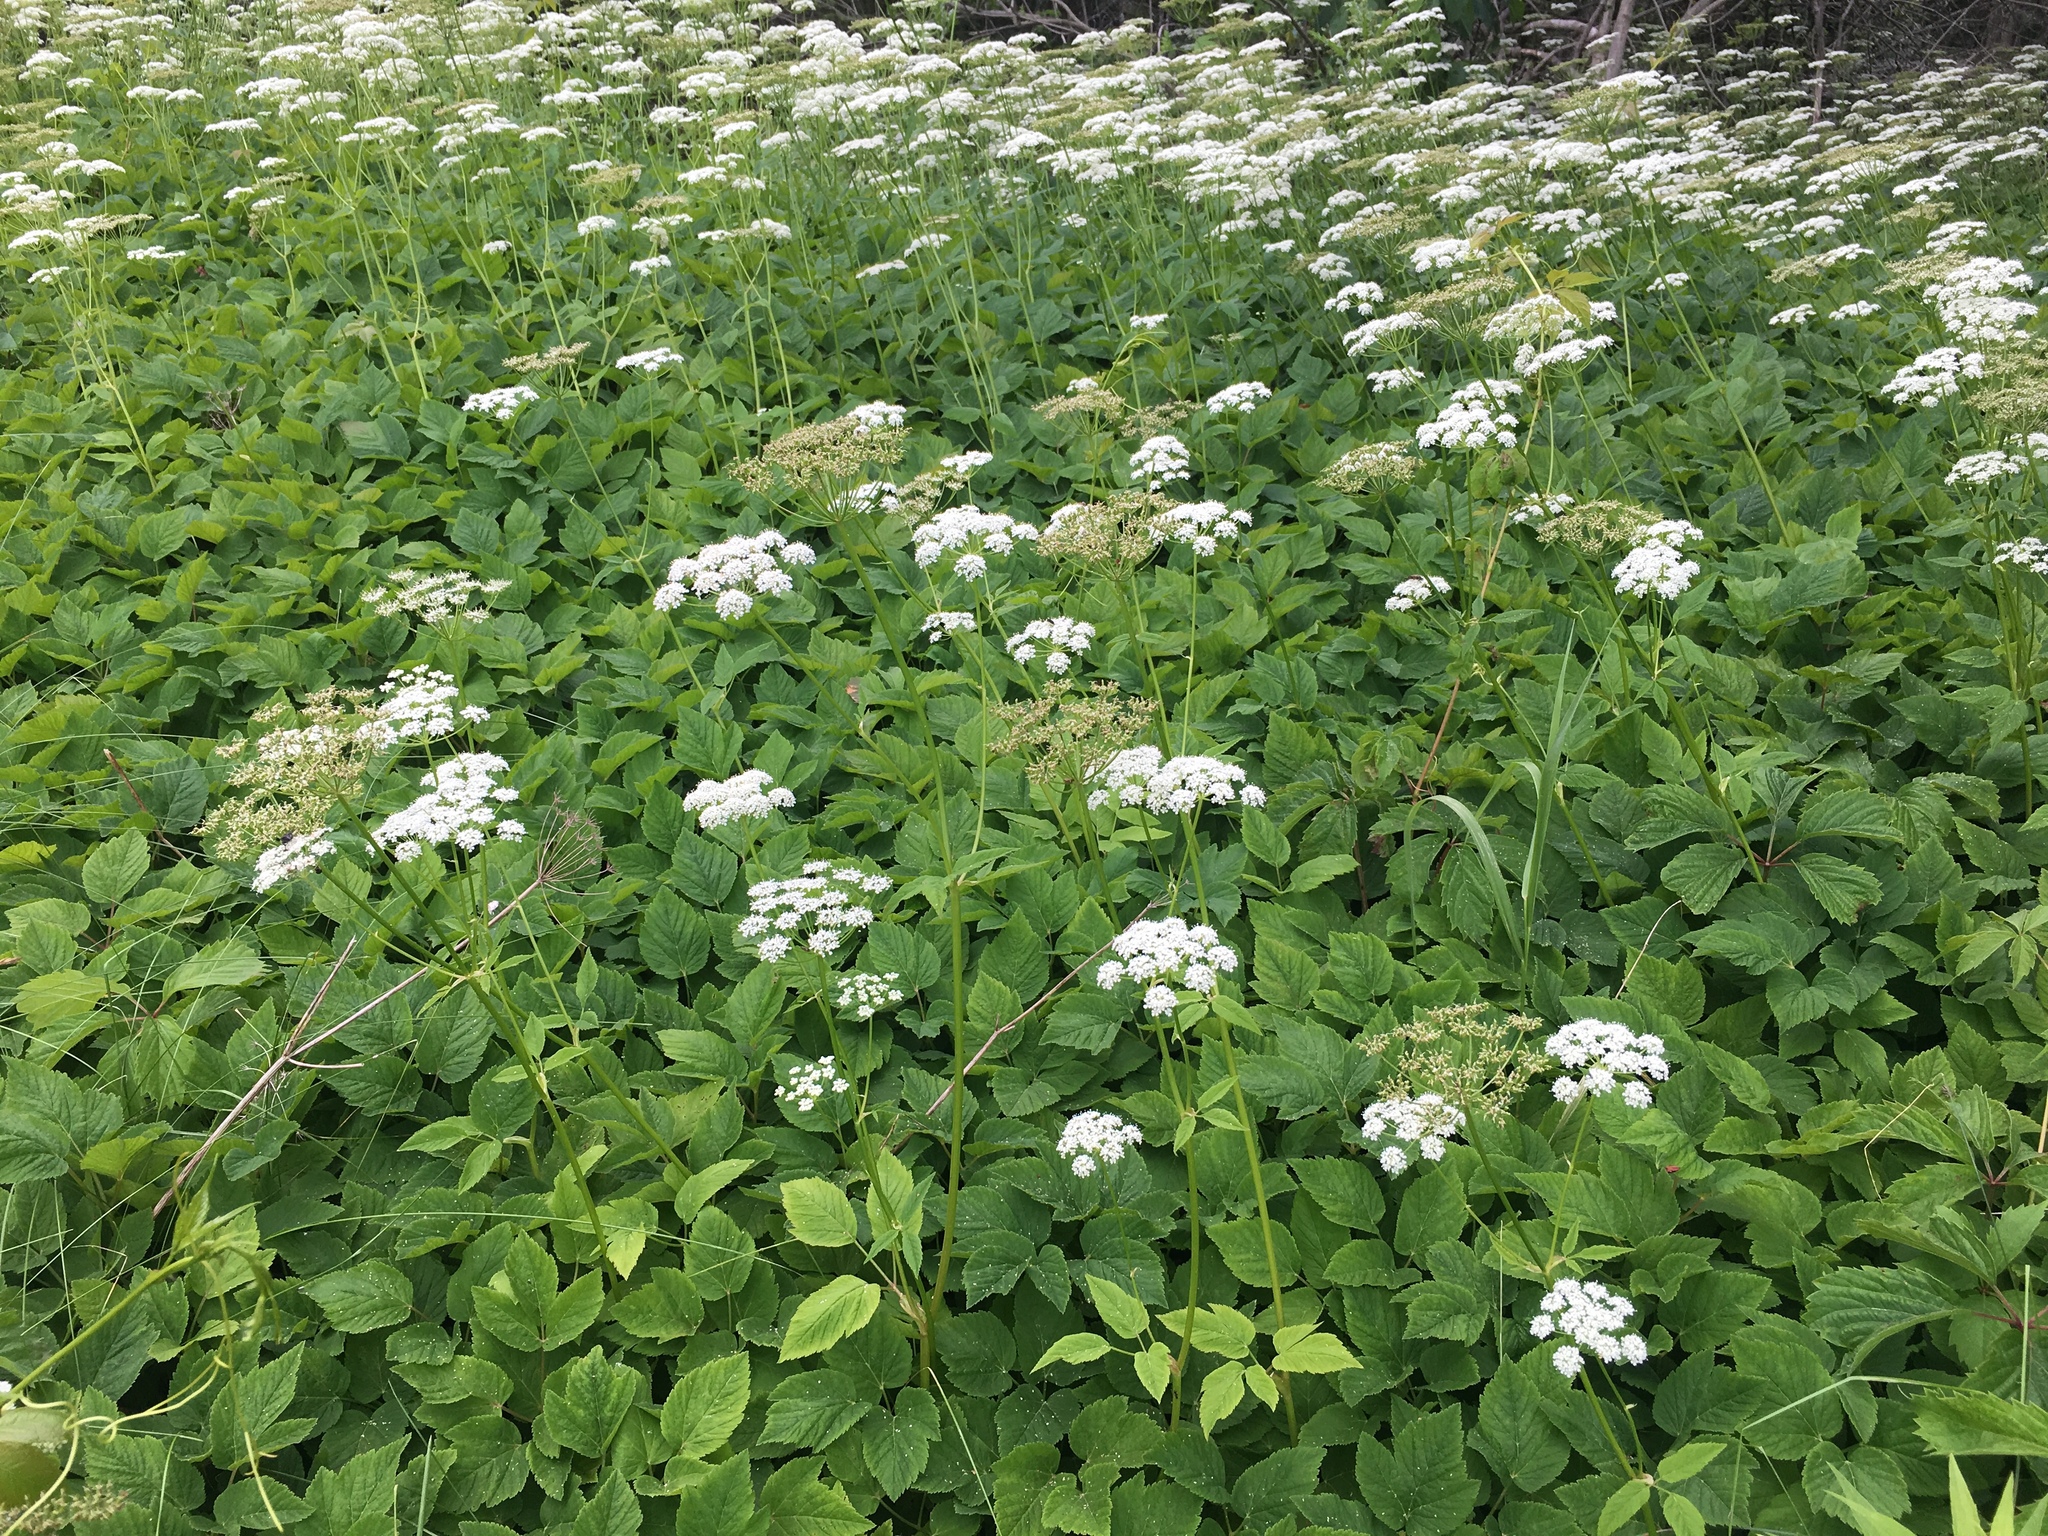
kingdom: Plantae
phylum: Tracheophyta
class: Magnoliopsida
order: Apiales
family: Apiaceae
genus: Aegopodium
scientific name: Aegopodium podagraria
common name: Ground-elder
